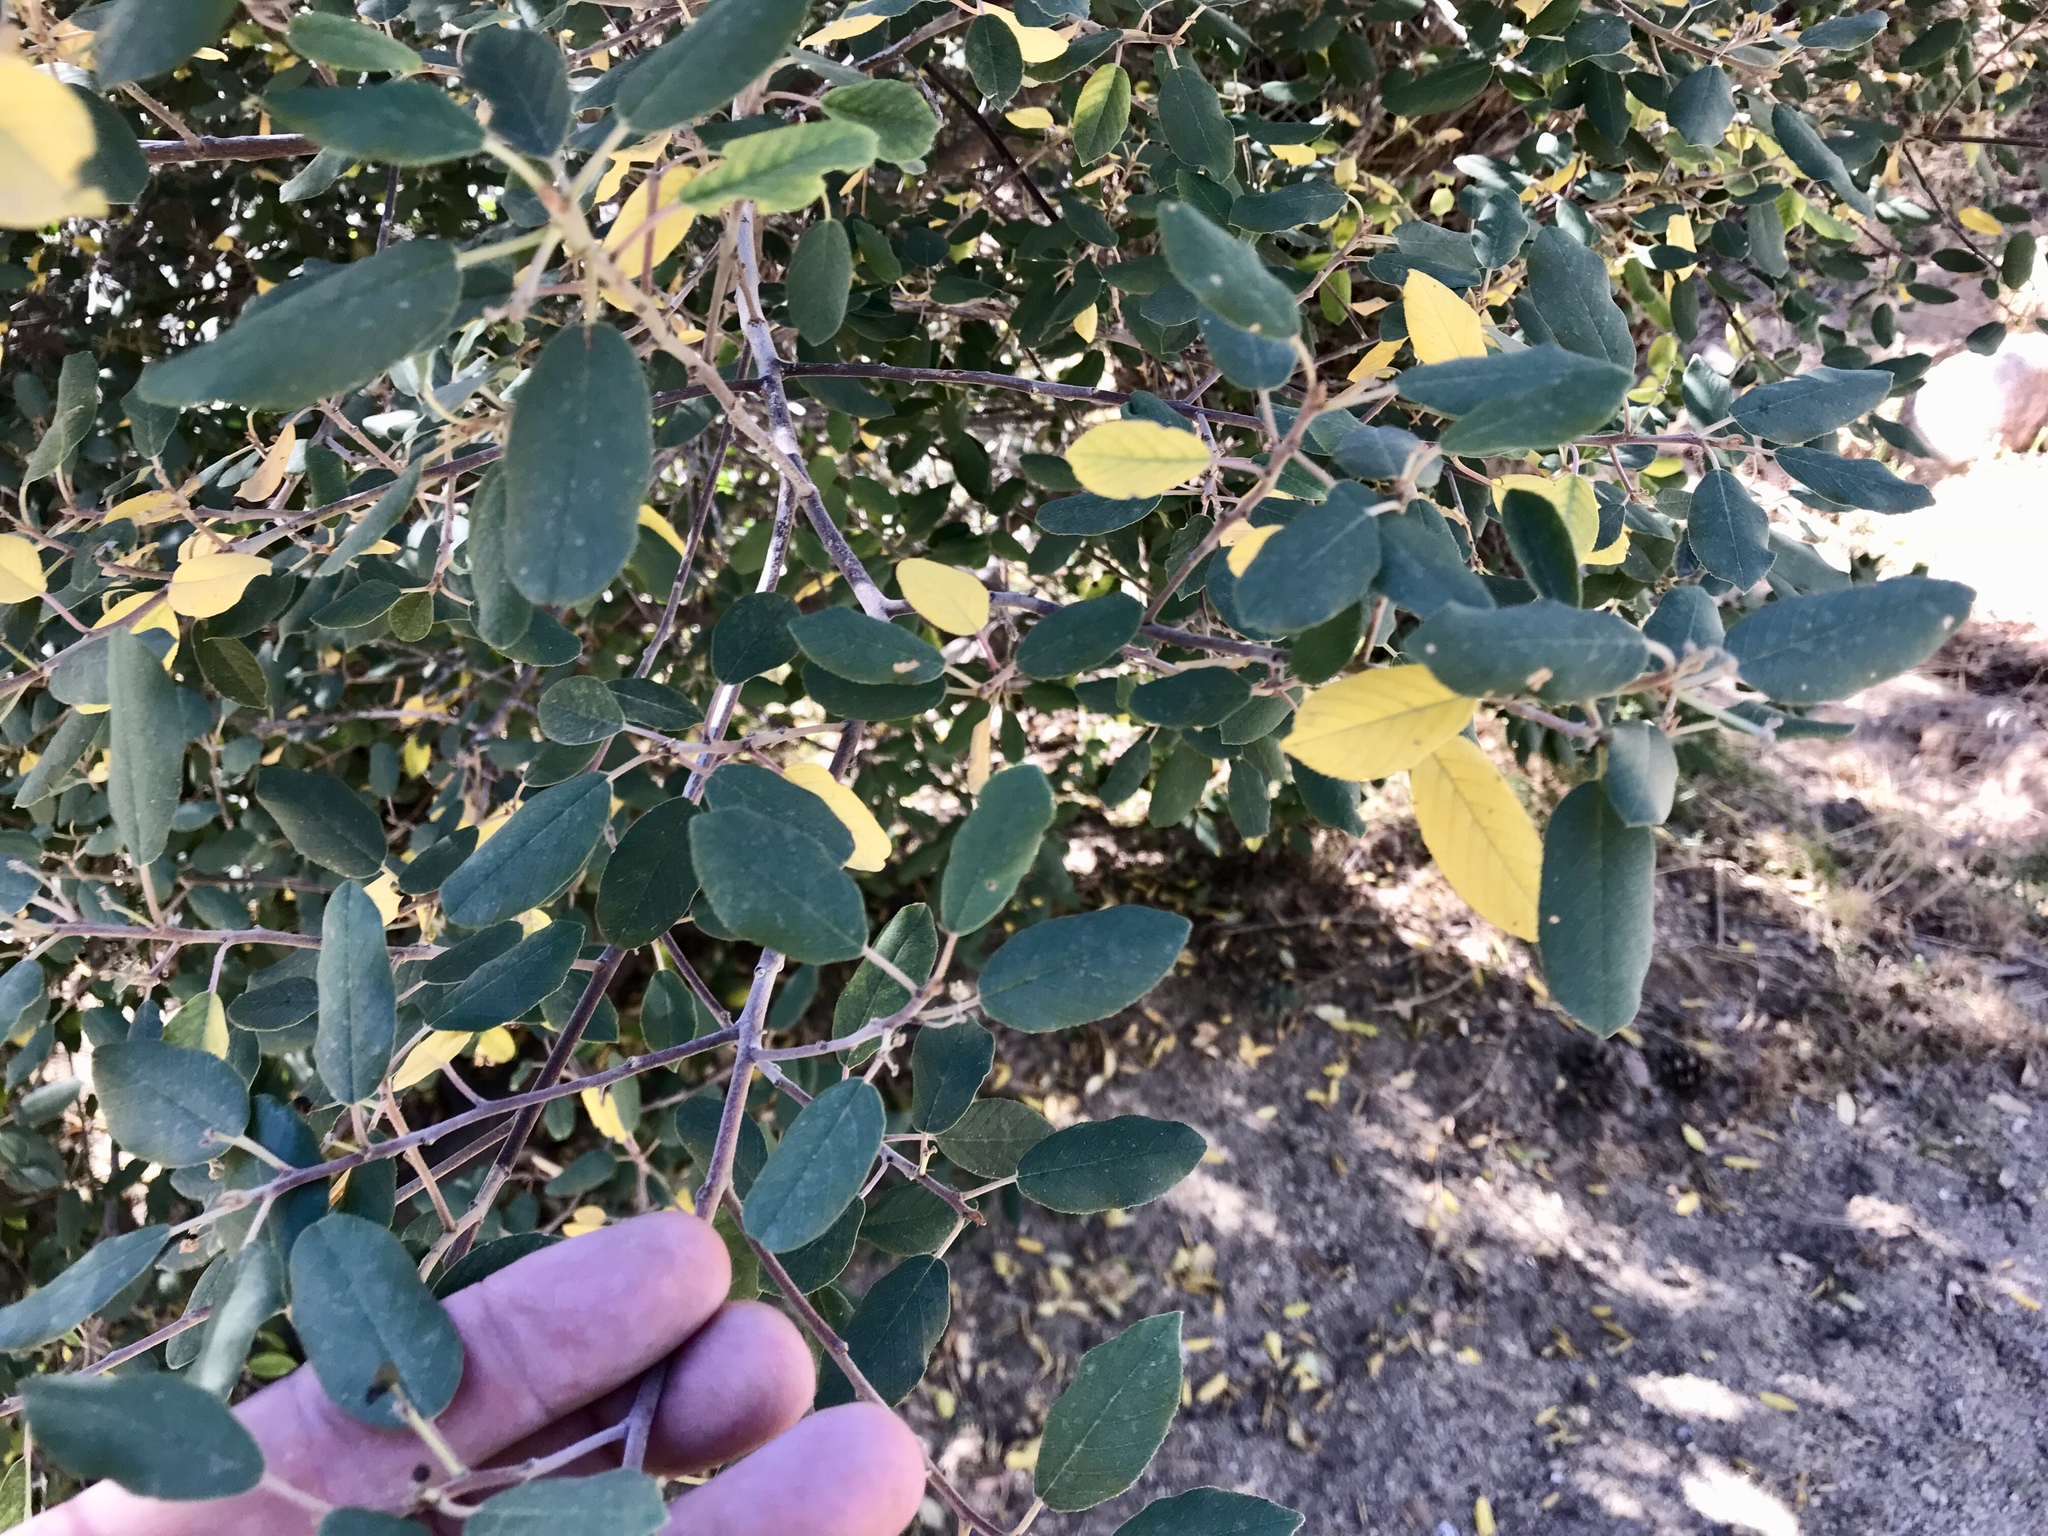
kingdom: Plantae
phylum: Tracheophyta
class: Magnoliopsida
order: Rosales
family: Rhamnaceae
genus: Frangula
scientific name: Frangula californica
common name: California buckthorn
